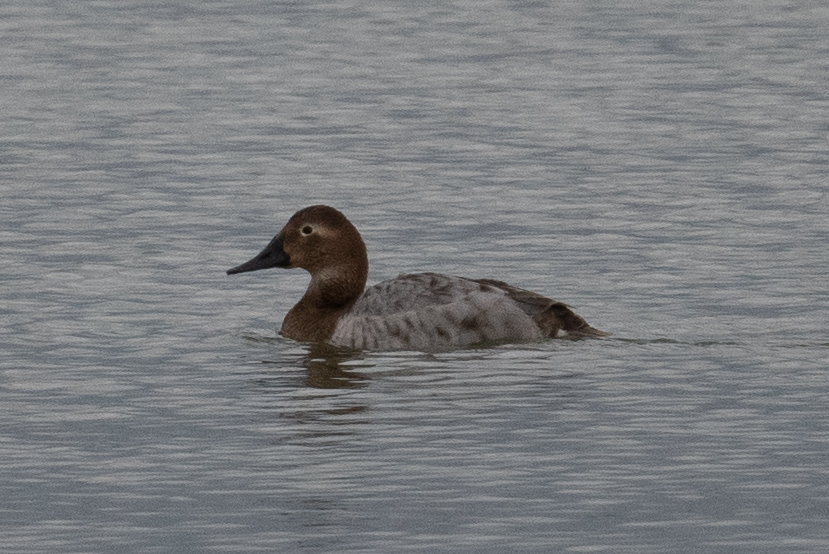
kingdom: Animalia
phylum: Chordata
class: Aves
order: Anseriformes
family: Anatidae
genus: Aythya
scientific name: Aythya valisineria
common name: Canvasback
